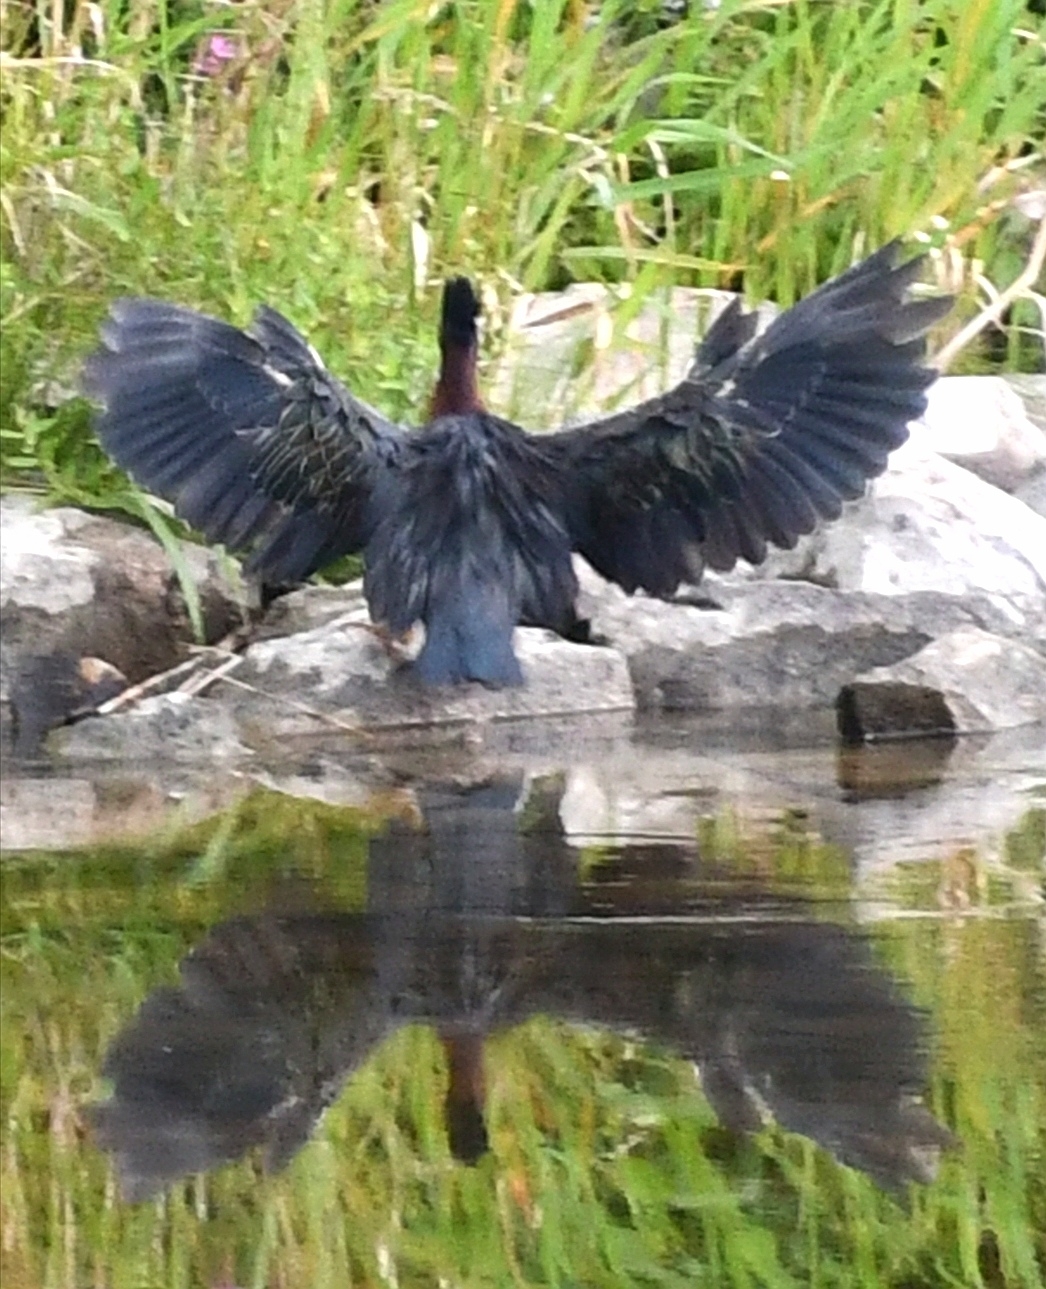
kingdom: Animalia
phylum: Chordata
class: Aves
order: Pelecaniformes
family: Ardeidae
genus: Butorides
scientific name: Butorides virescens
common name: Green heron
